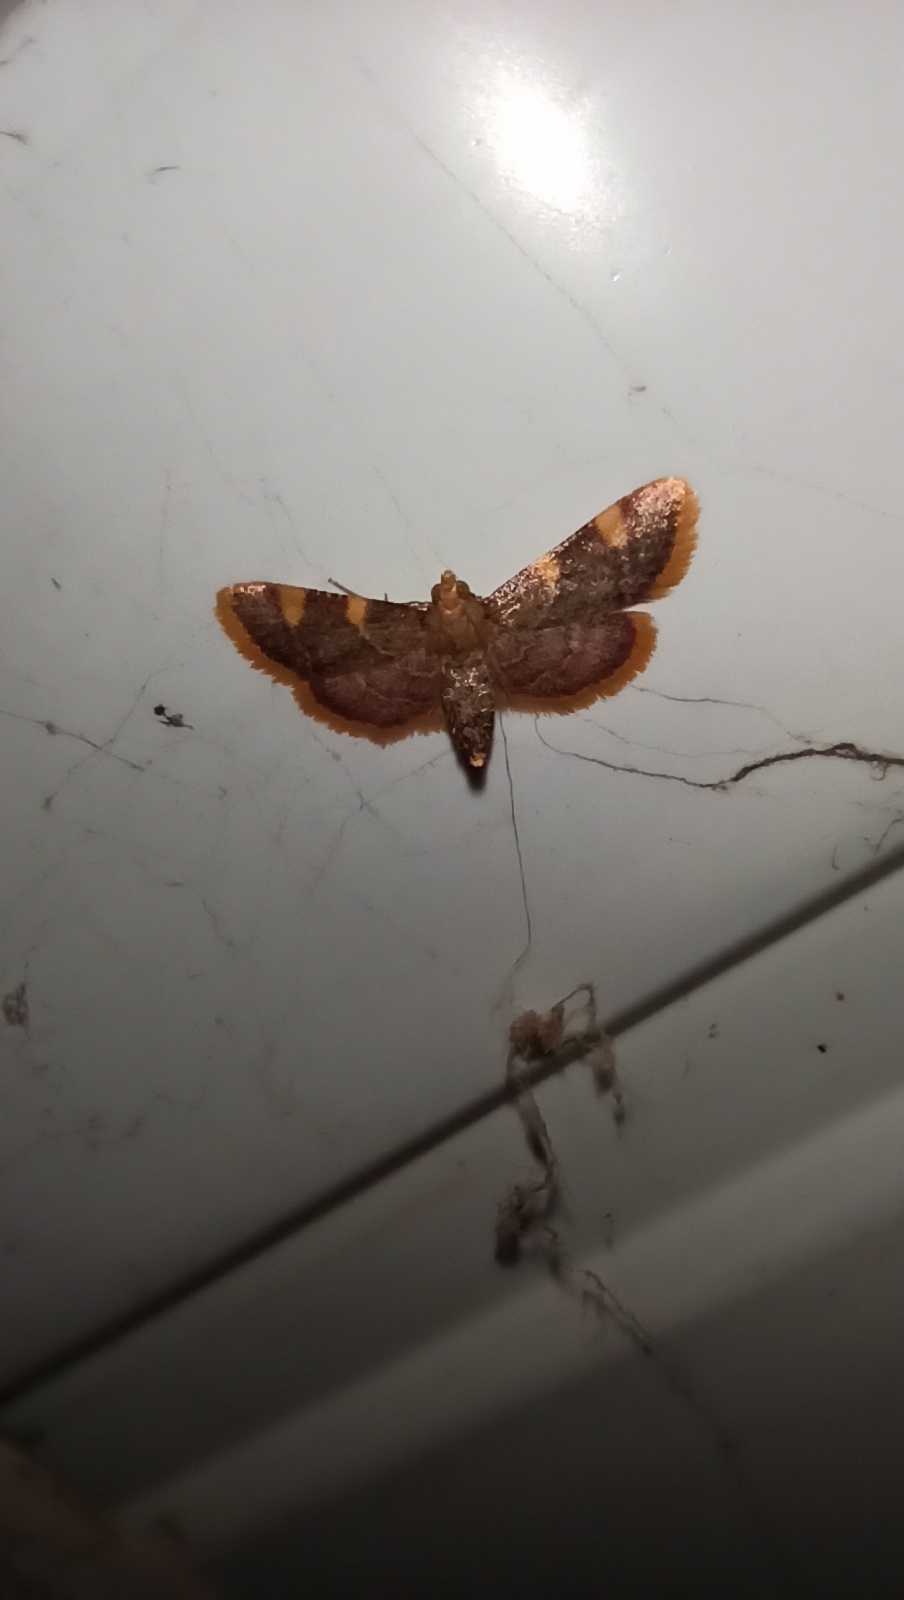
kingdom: Animalia
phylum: Arthropoda
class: Insecta
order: Lepidoptera
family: Pyralidae
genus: Hypsopygia
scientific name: Hypsopygia costalis
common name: Gold triangle
